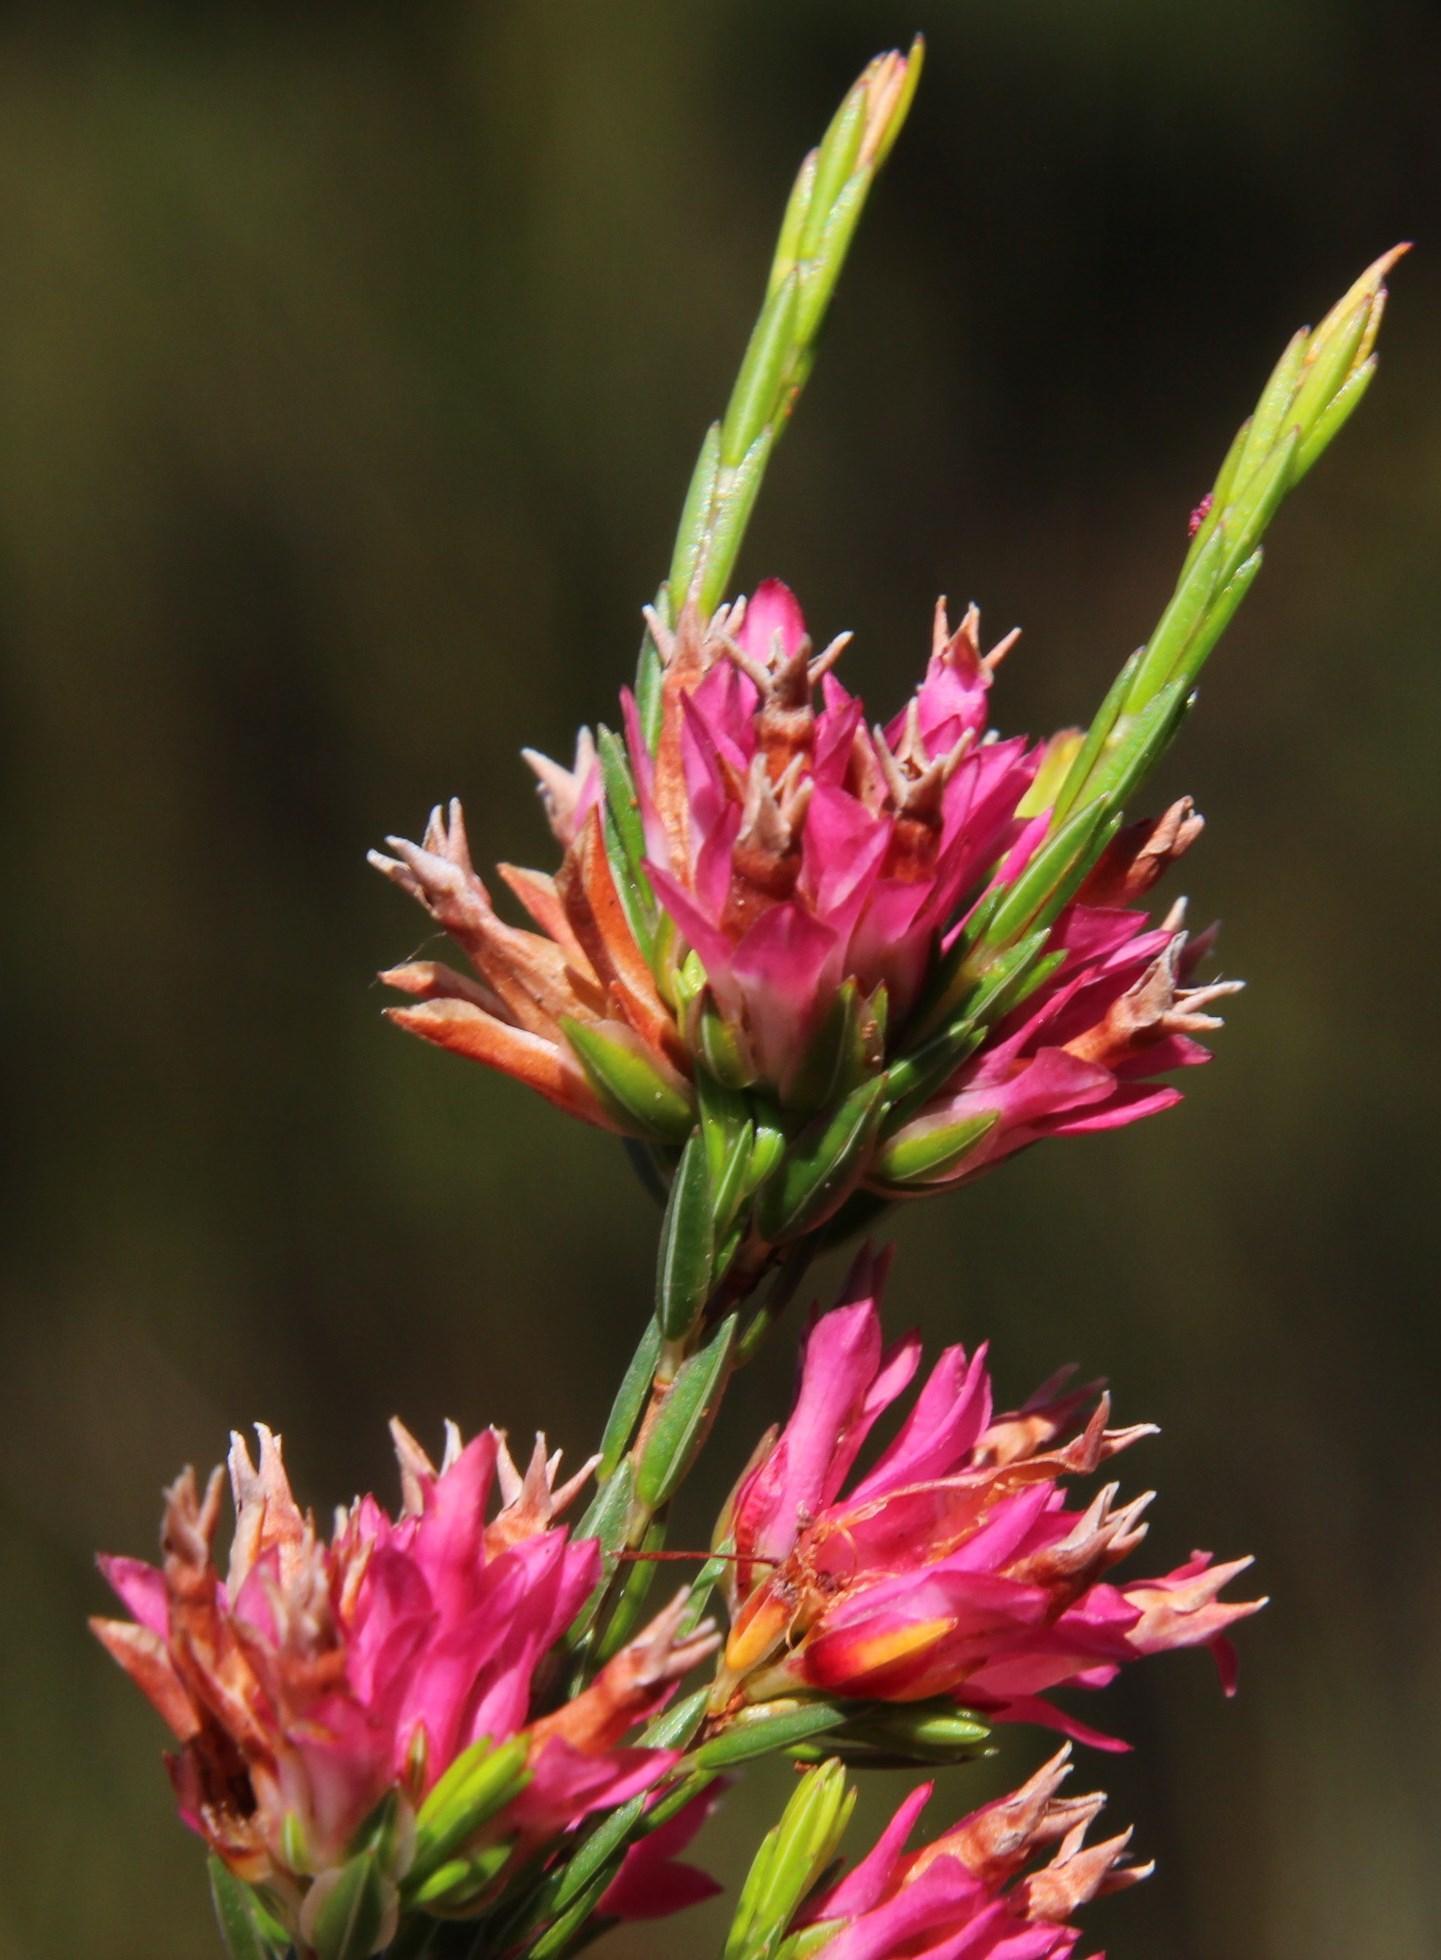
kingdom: Plantae
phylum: Tracheophyta
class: Magnoliopsida
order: Ericales
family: Ericaceae
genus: Erica
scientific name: Erica bracteolaris
